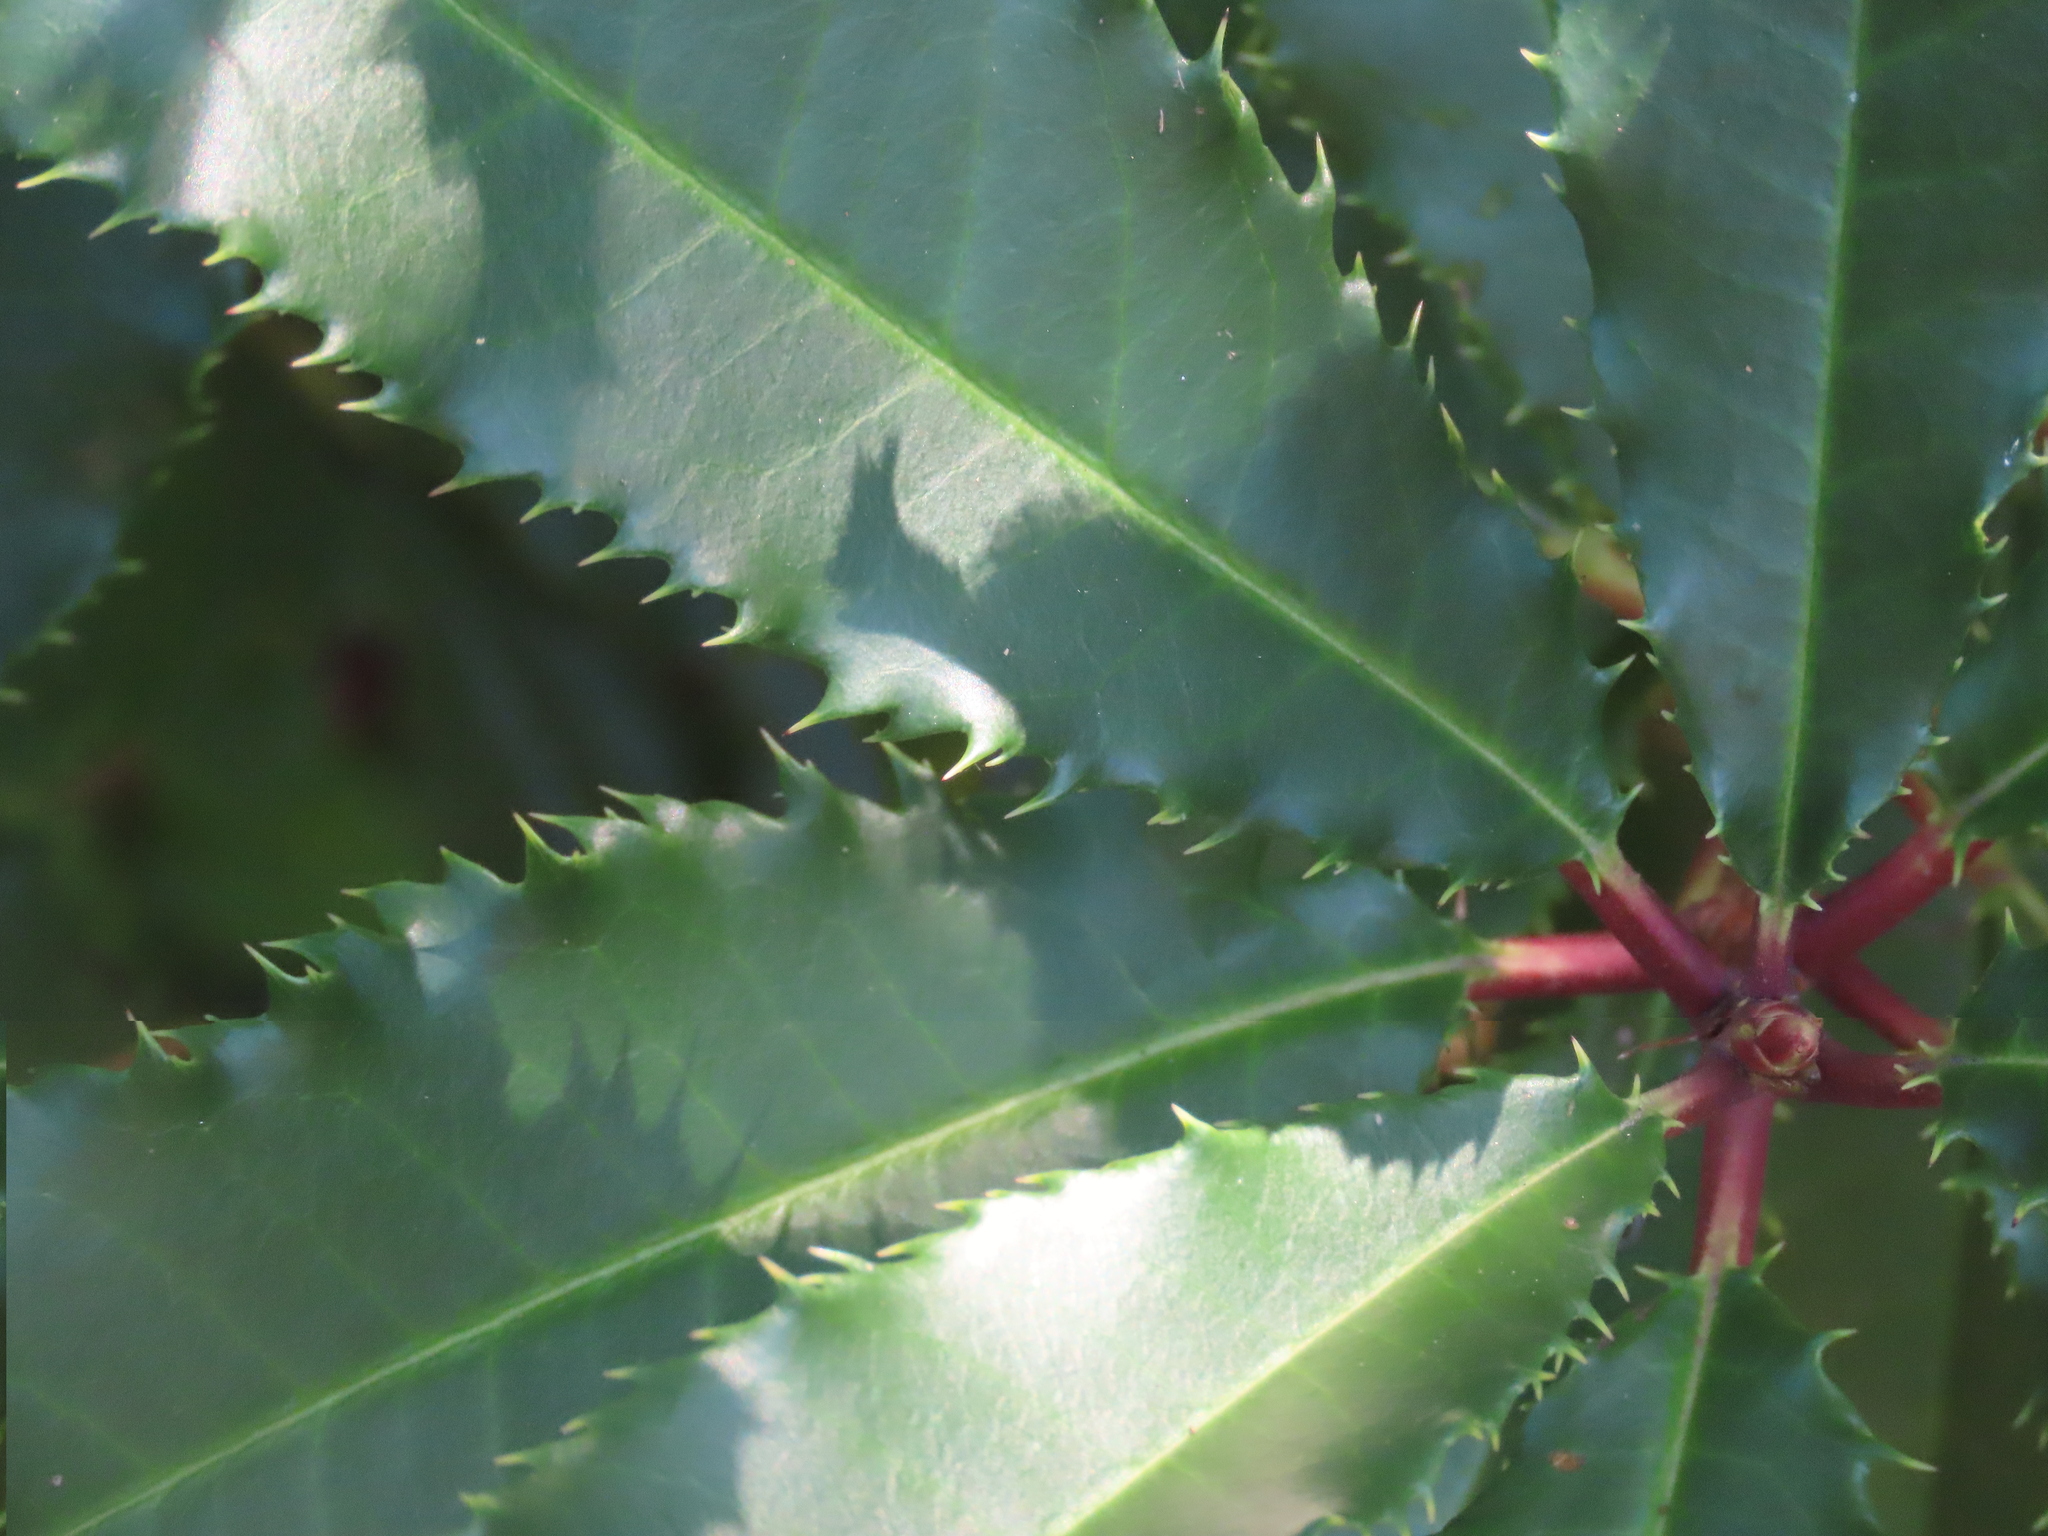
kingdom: Plantae
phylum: Tracheophyta
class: Magnoliopsida
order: Rosales
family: Rosaceae
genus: Photinia
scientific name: Photinia serratifolia
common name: Taiwanese photinia
